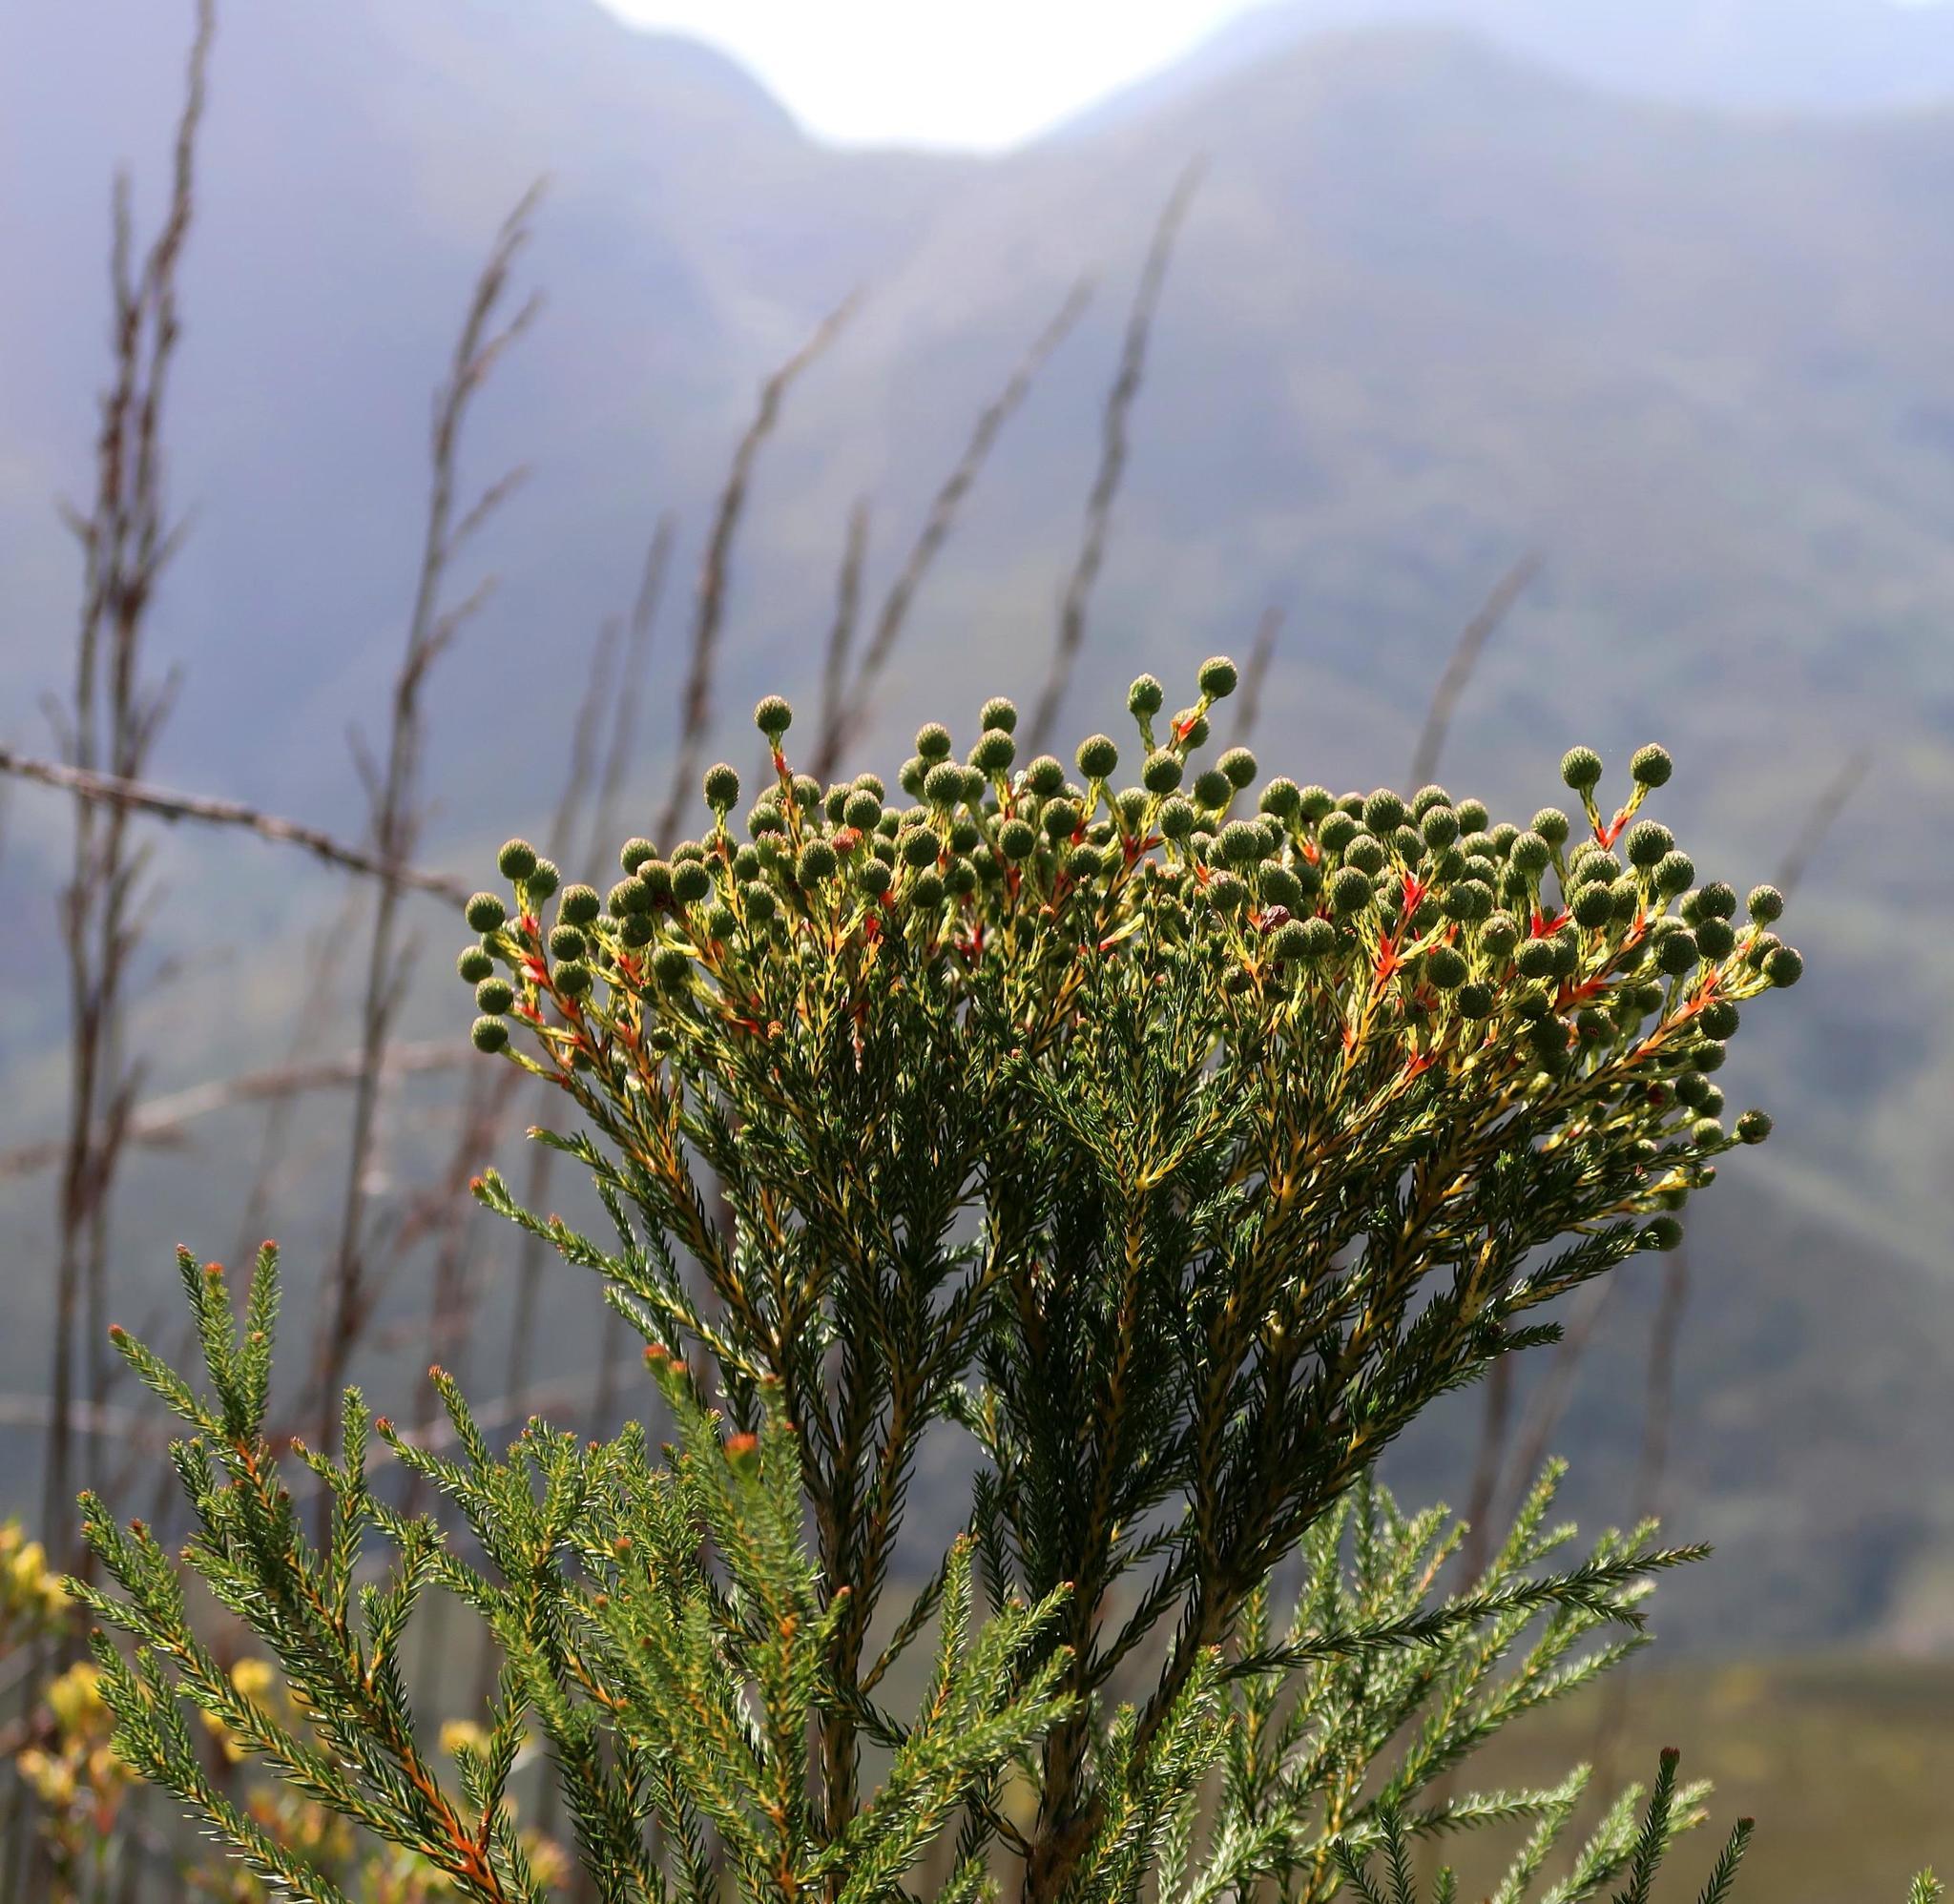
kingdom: Plantae
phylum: Tracheophyta
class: Magnoliopsida
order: Bruniales
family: Bruniaceae
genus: Berzelia
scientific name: Berzelia intermedia
